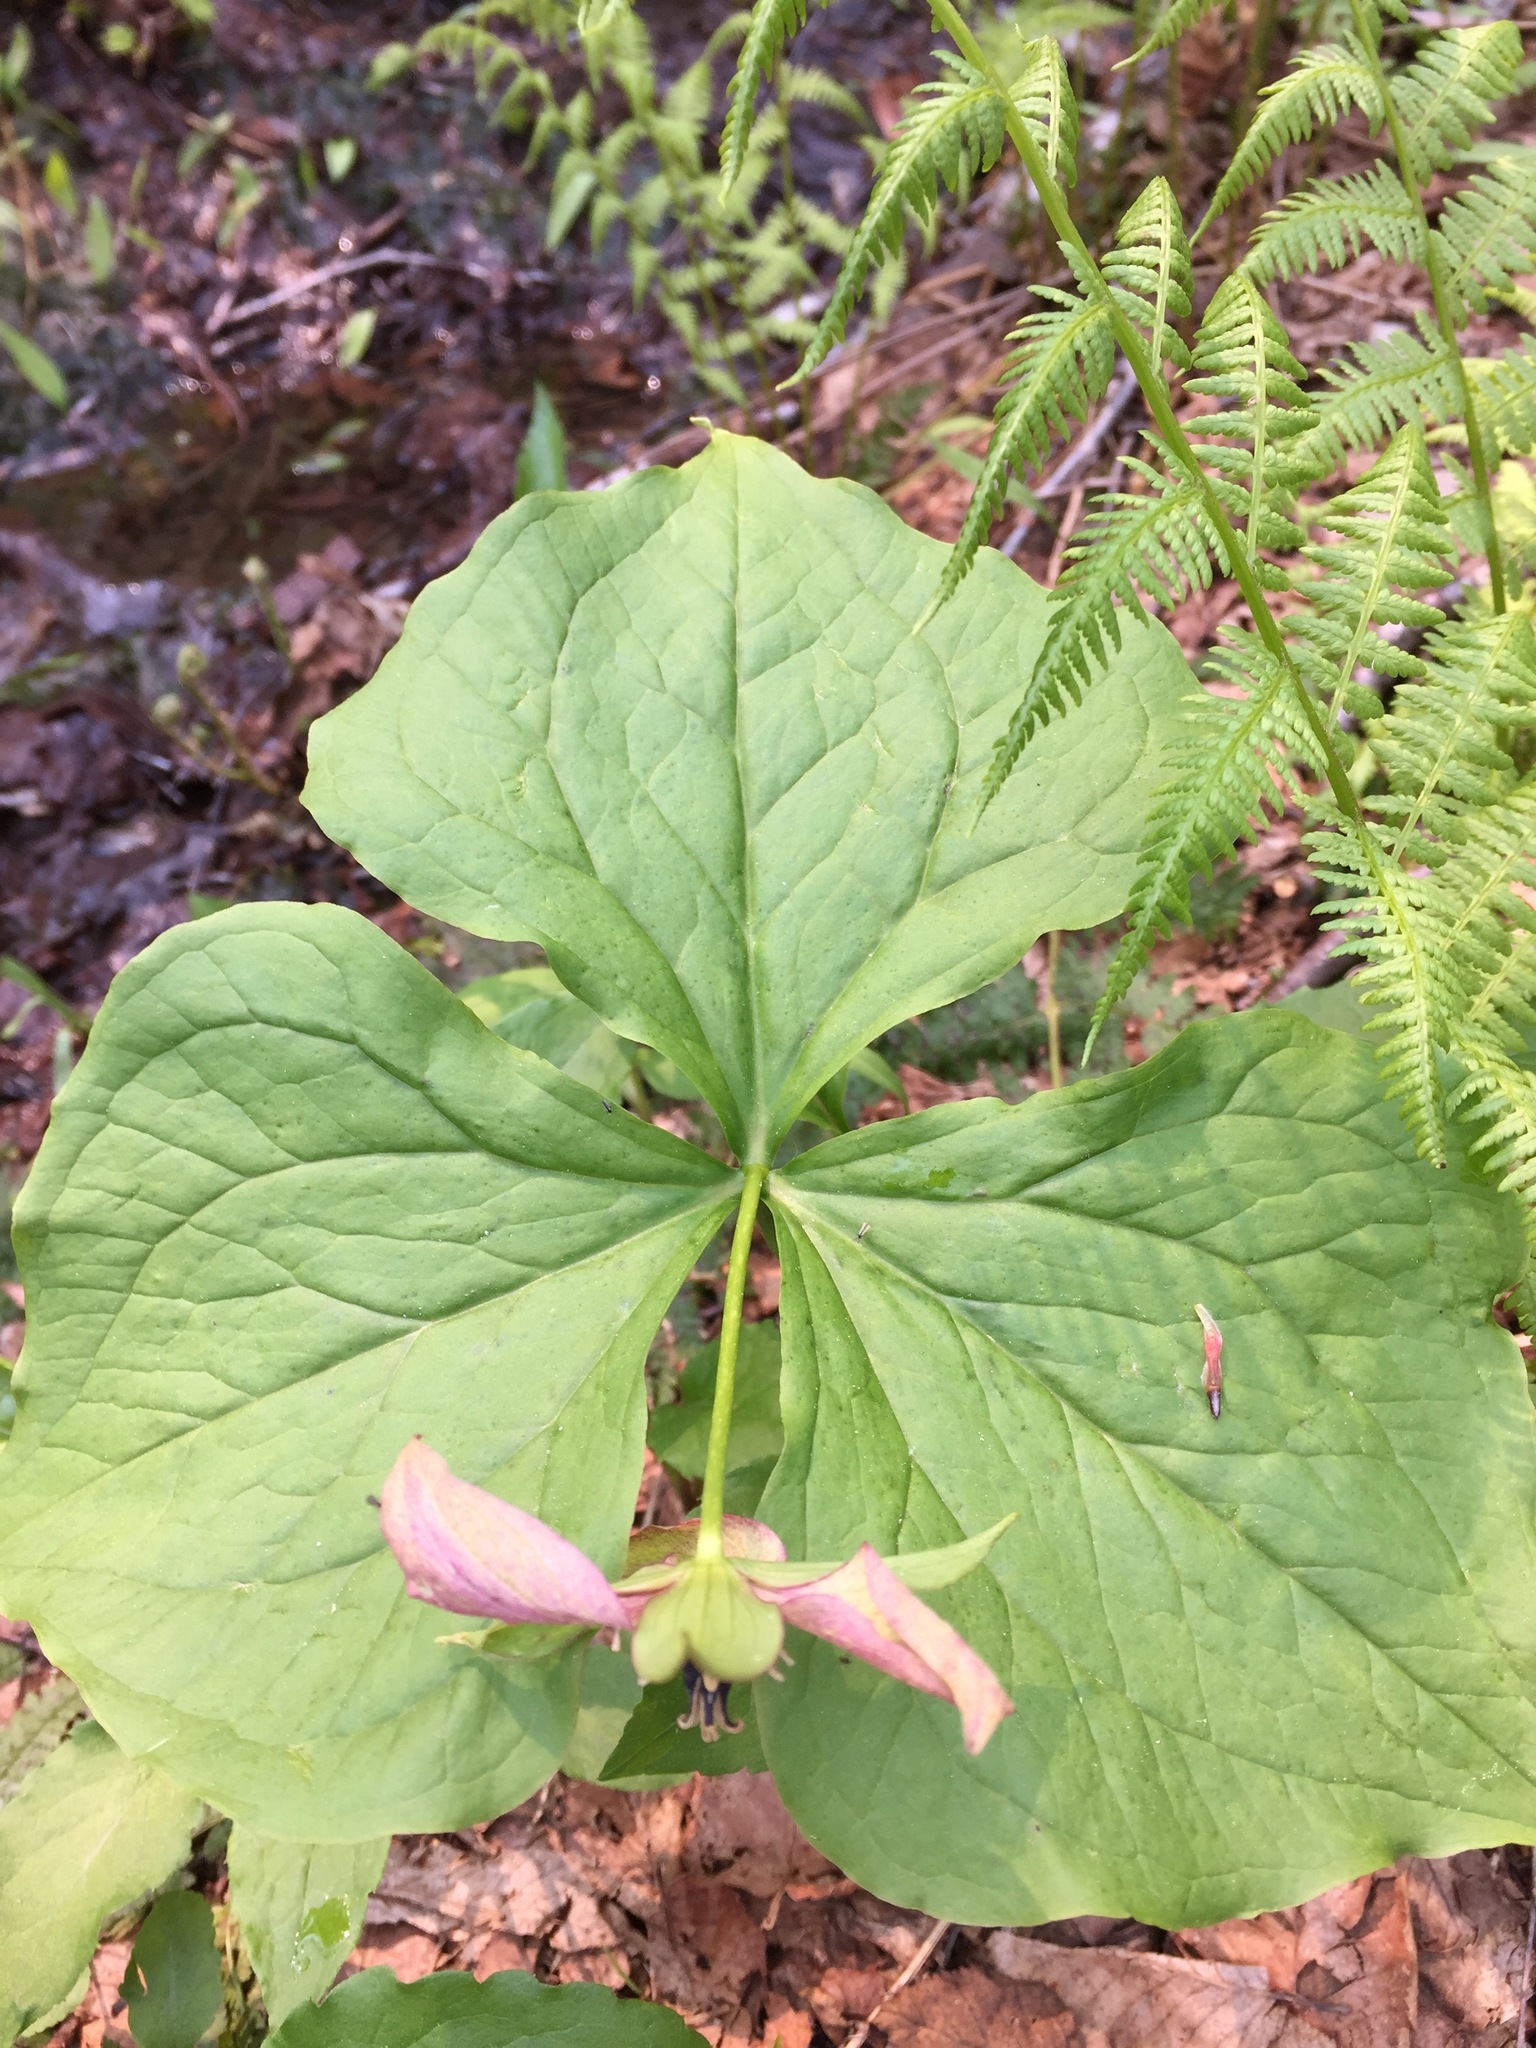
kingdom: Plantae
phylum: Tracheophyta
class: Liliopsida
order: Liliales
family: Melanthiaceae
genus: Trillium
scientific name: Trillium erectum
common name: Purple trillium
